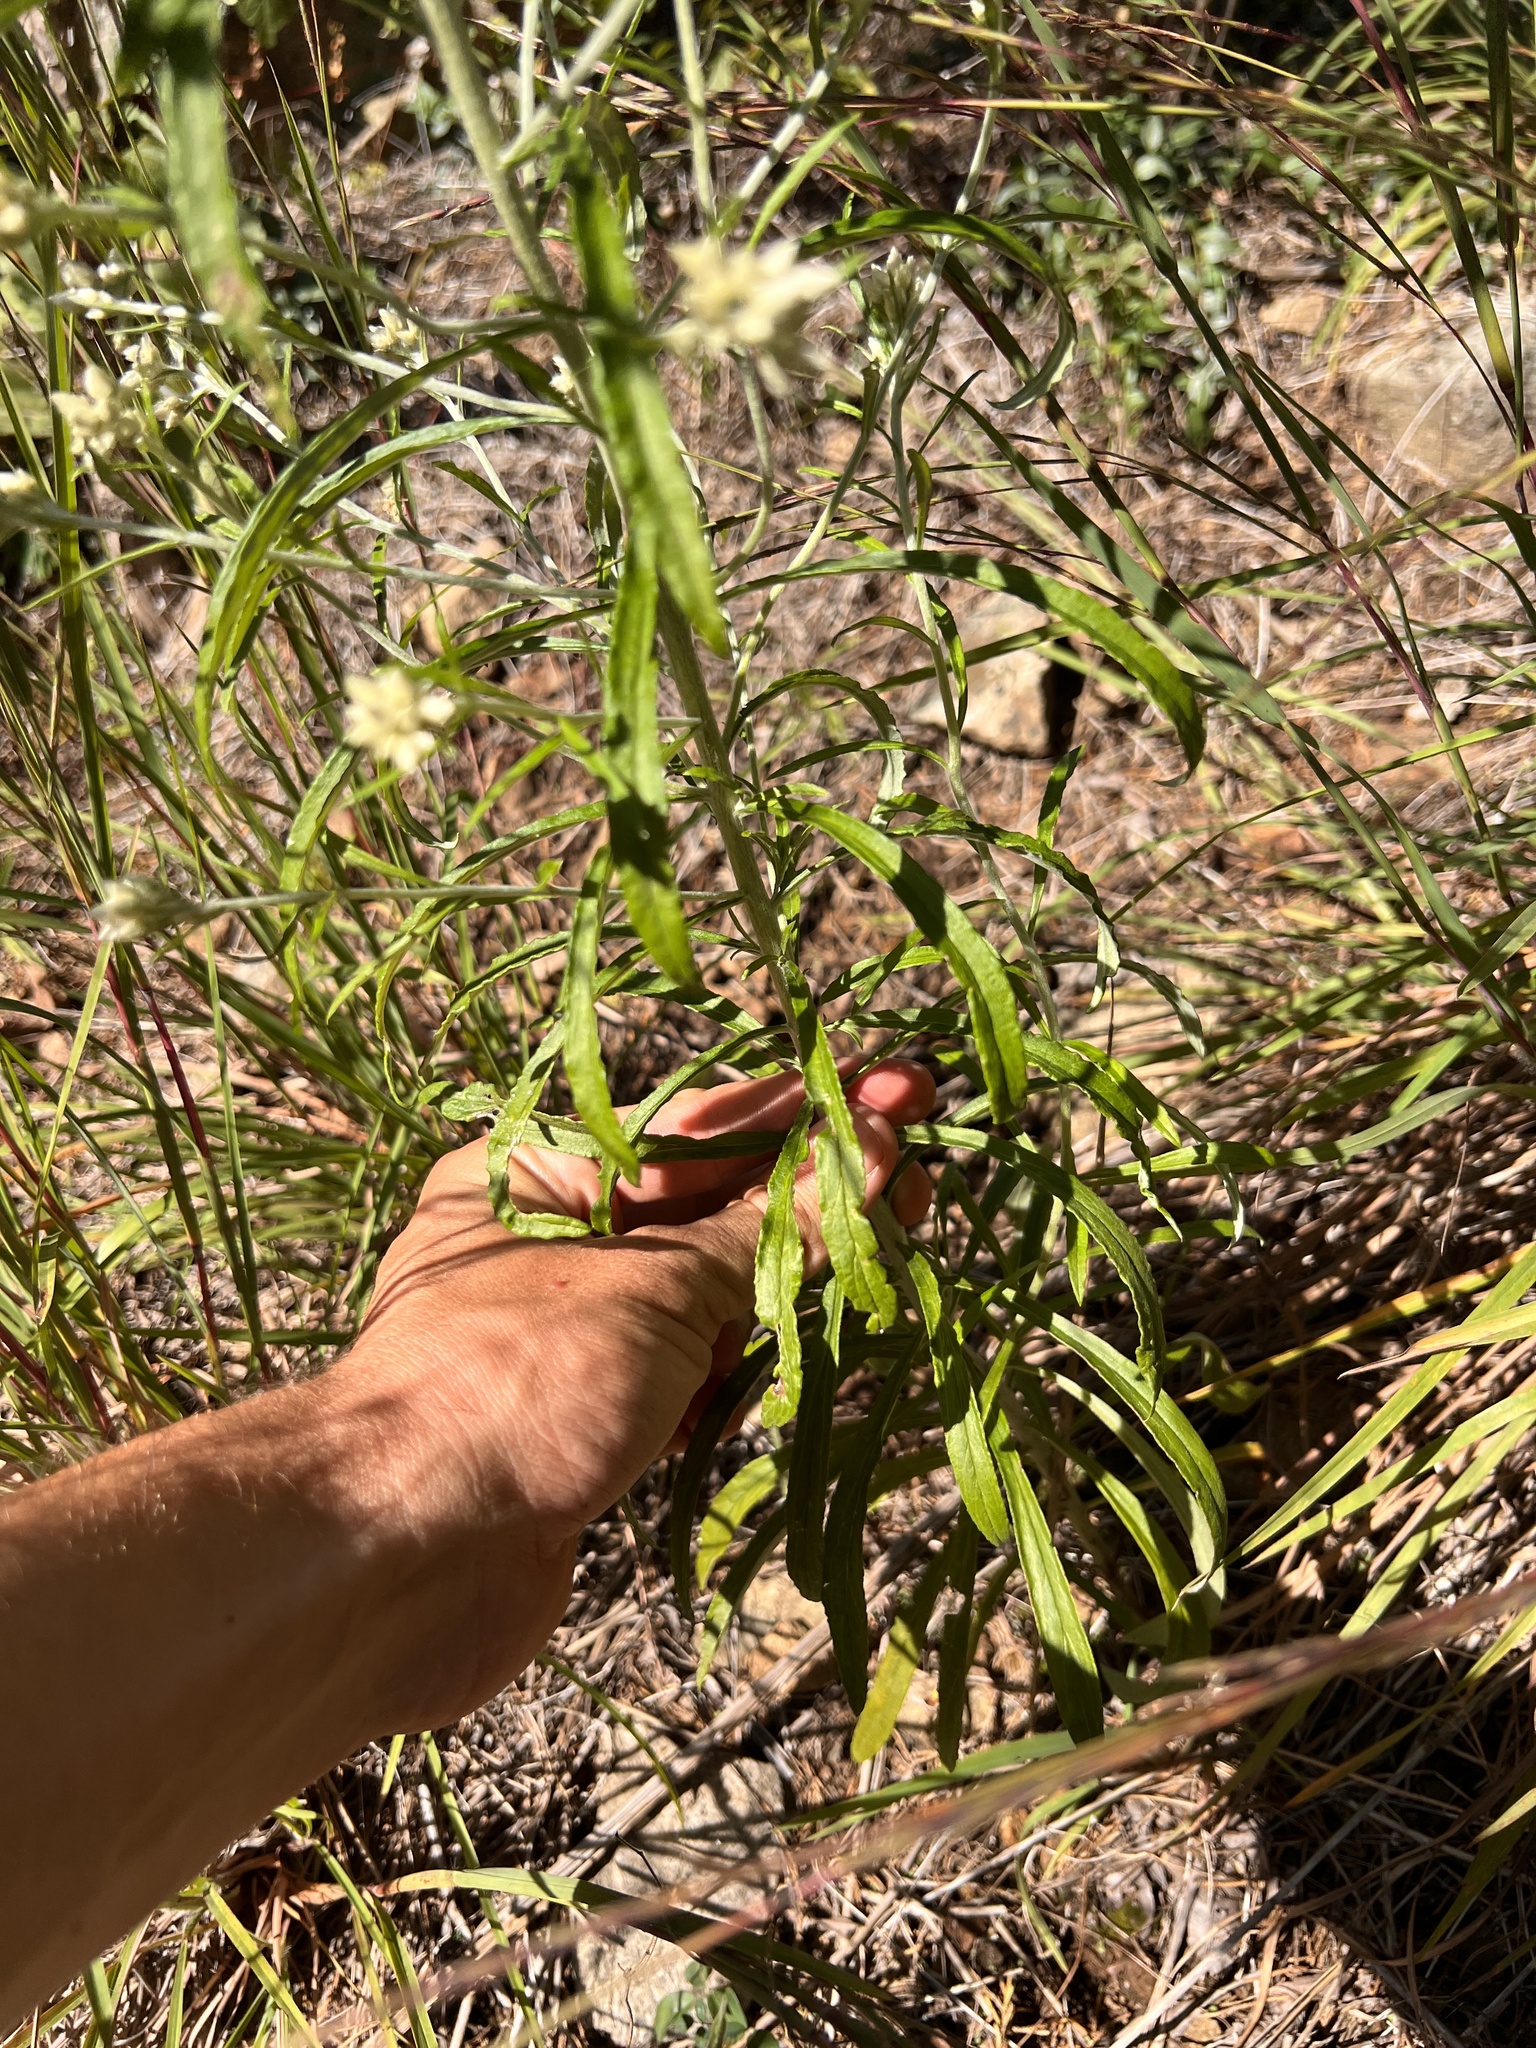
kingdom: Plantae
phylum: Tracheophyta
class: Magnoliopsida
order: Asterales
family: Asteraceae
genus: Pseudognaphalium
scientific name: Pseudognaphalium obtusifolium
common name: Eastern rabbit-tobacco
